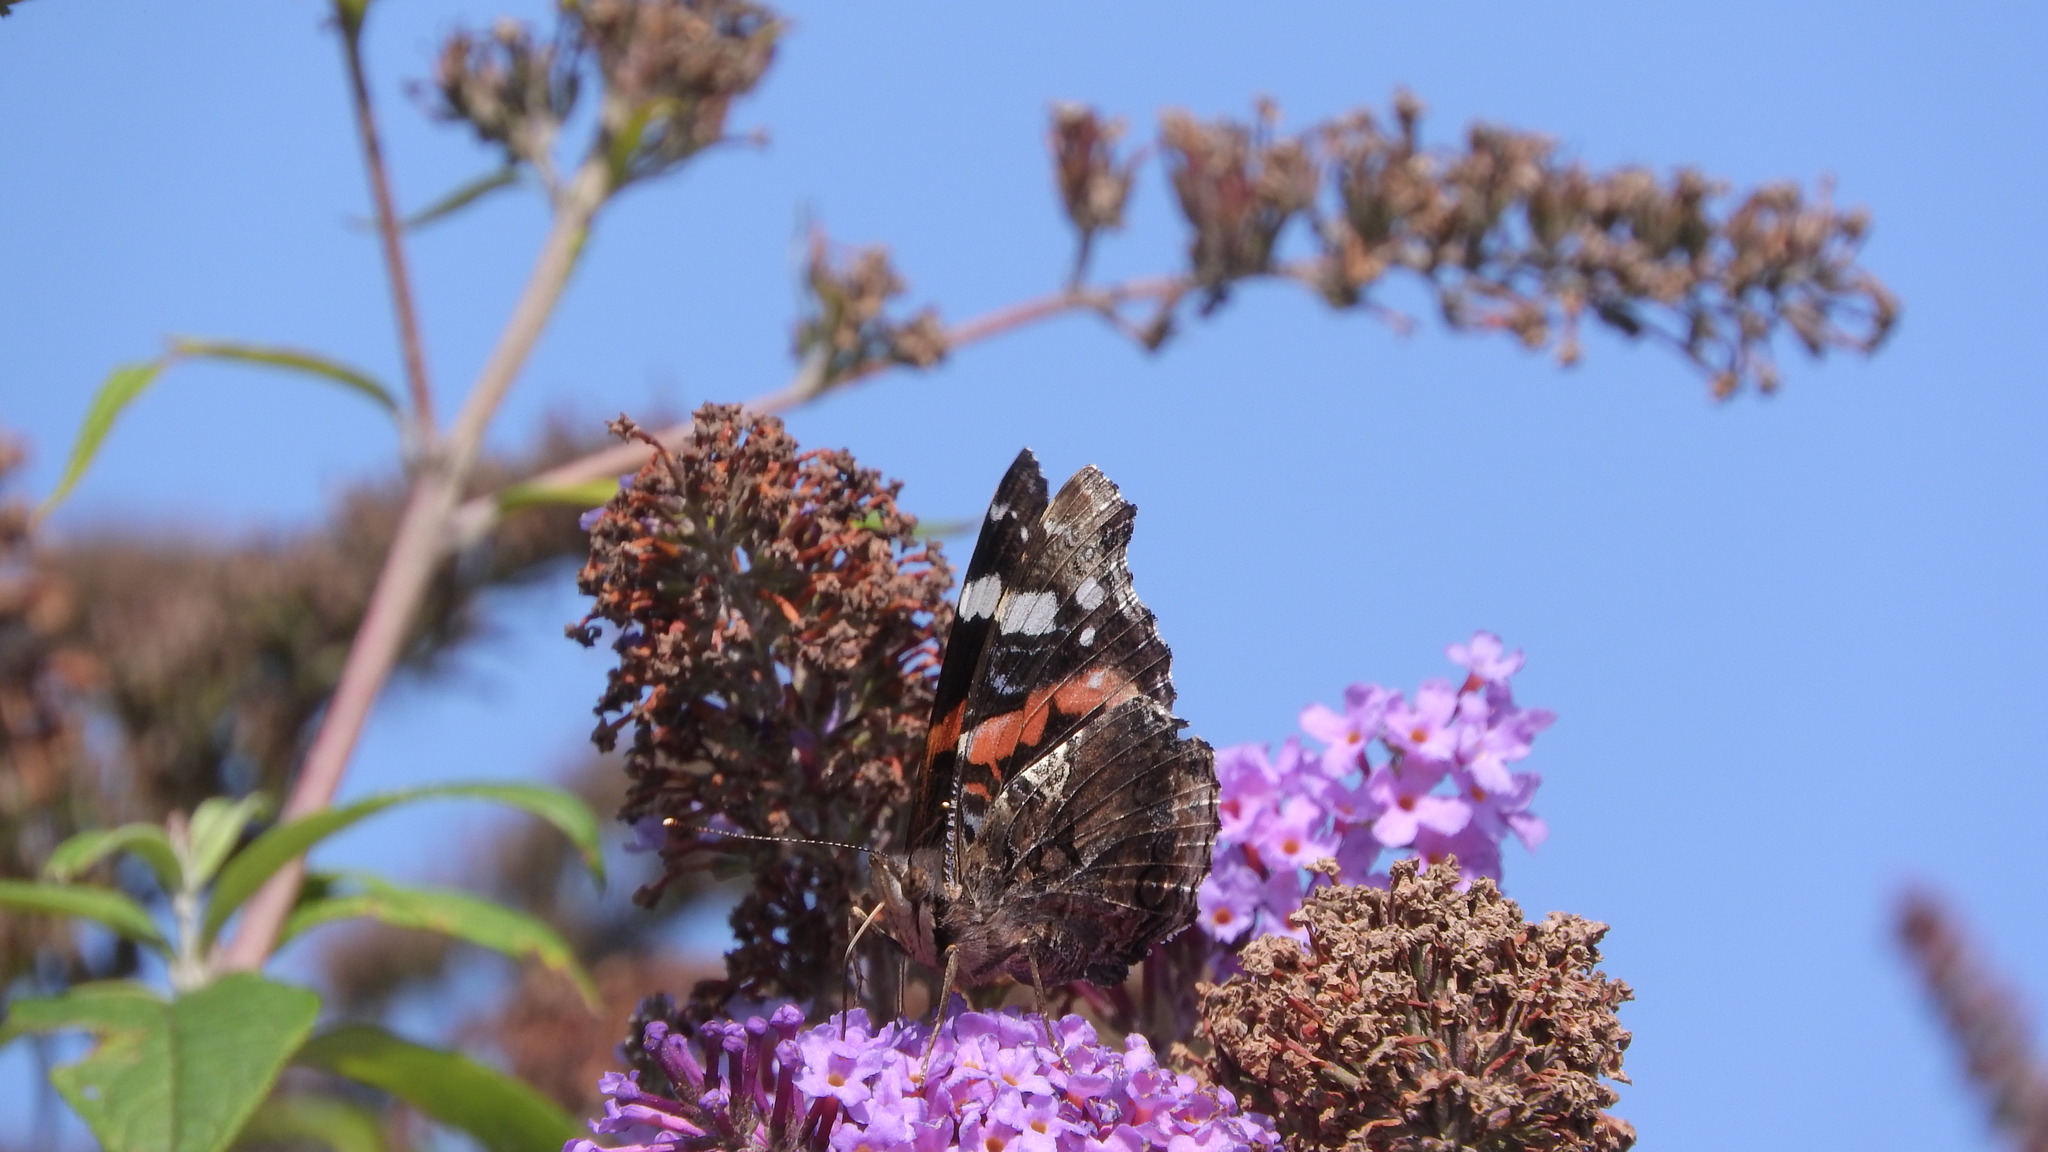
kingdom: Animalia
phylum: Arthropoda
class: Insecta
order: Lepidoptera
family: Nymphalidae
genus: Vanessa
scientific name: Vanessa atalanta
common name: Red admiral
